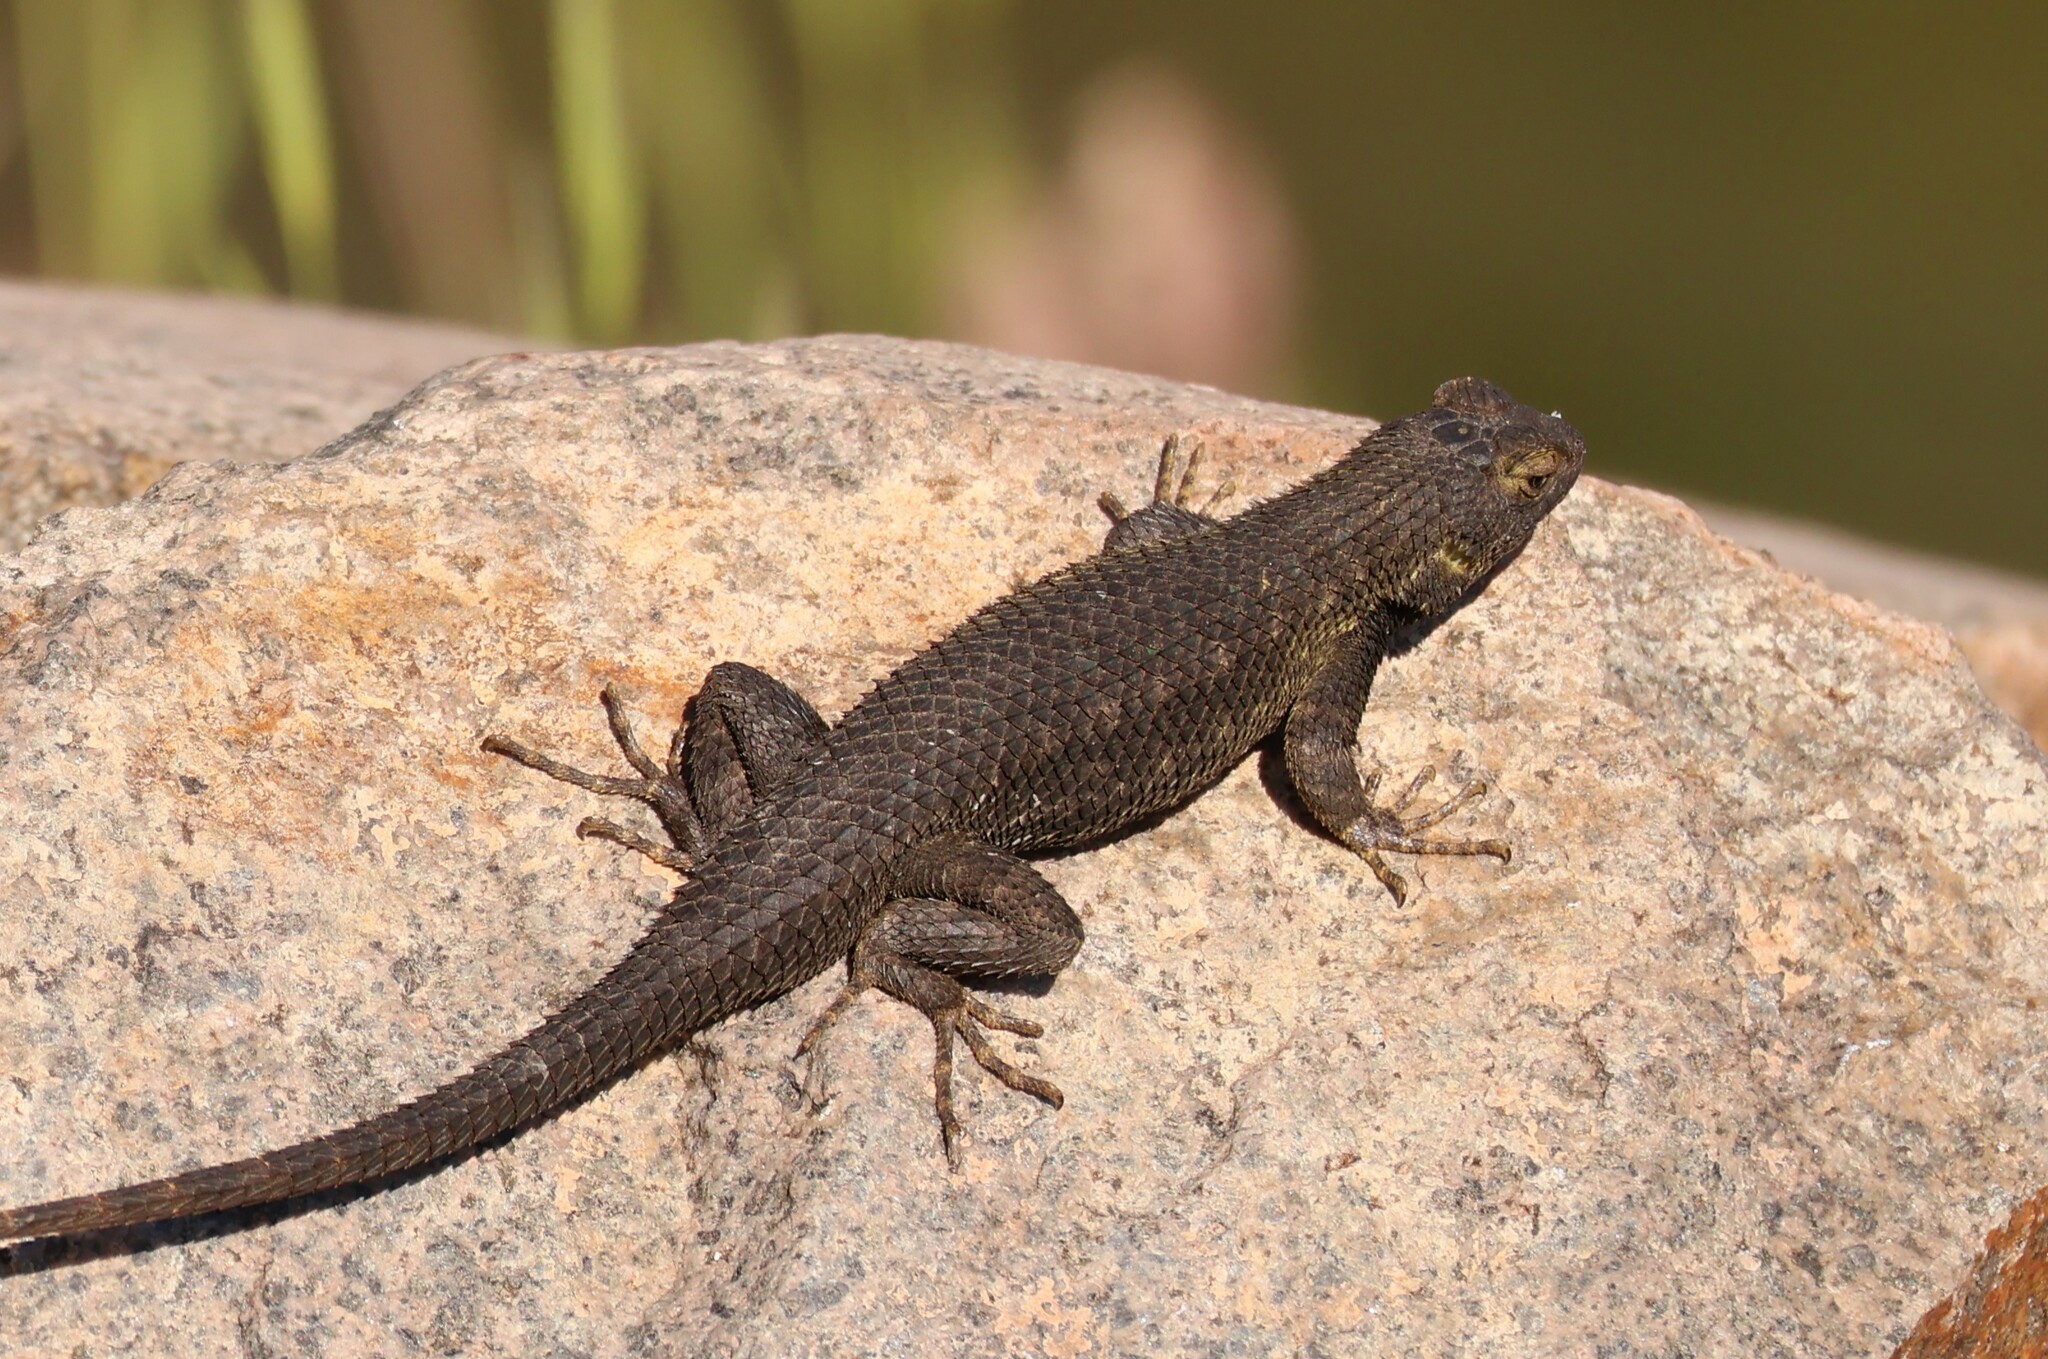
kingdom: Animalia
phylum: Chordata
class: Squamata
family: Phrynosomatidae
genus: Sceloporus
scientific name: Sceloporus occidentalis
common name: Western fence lizard
